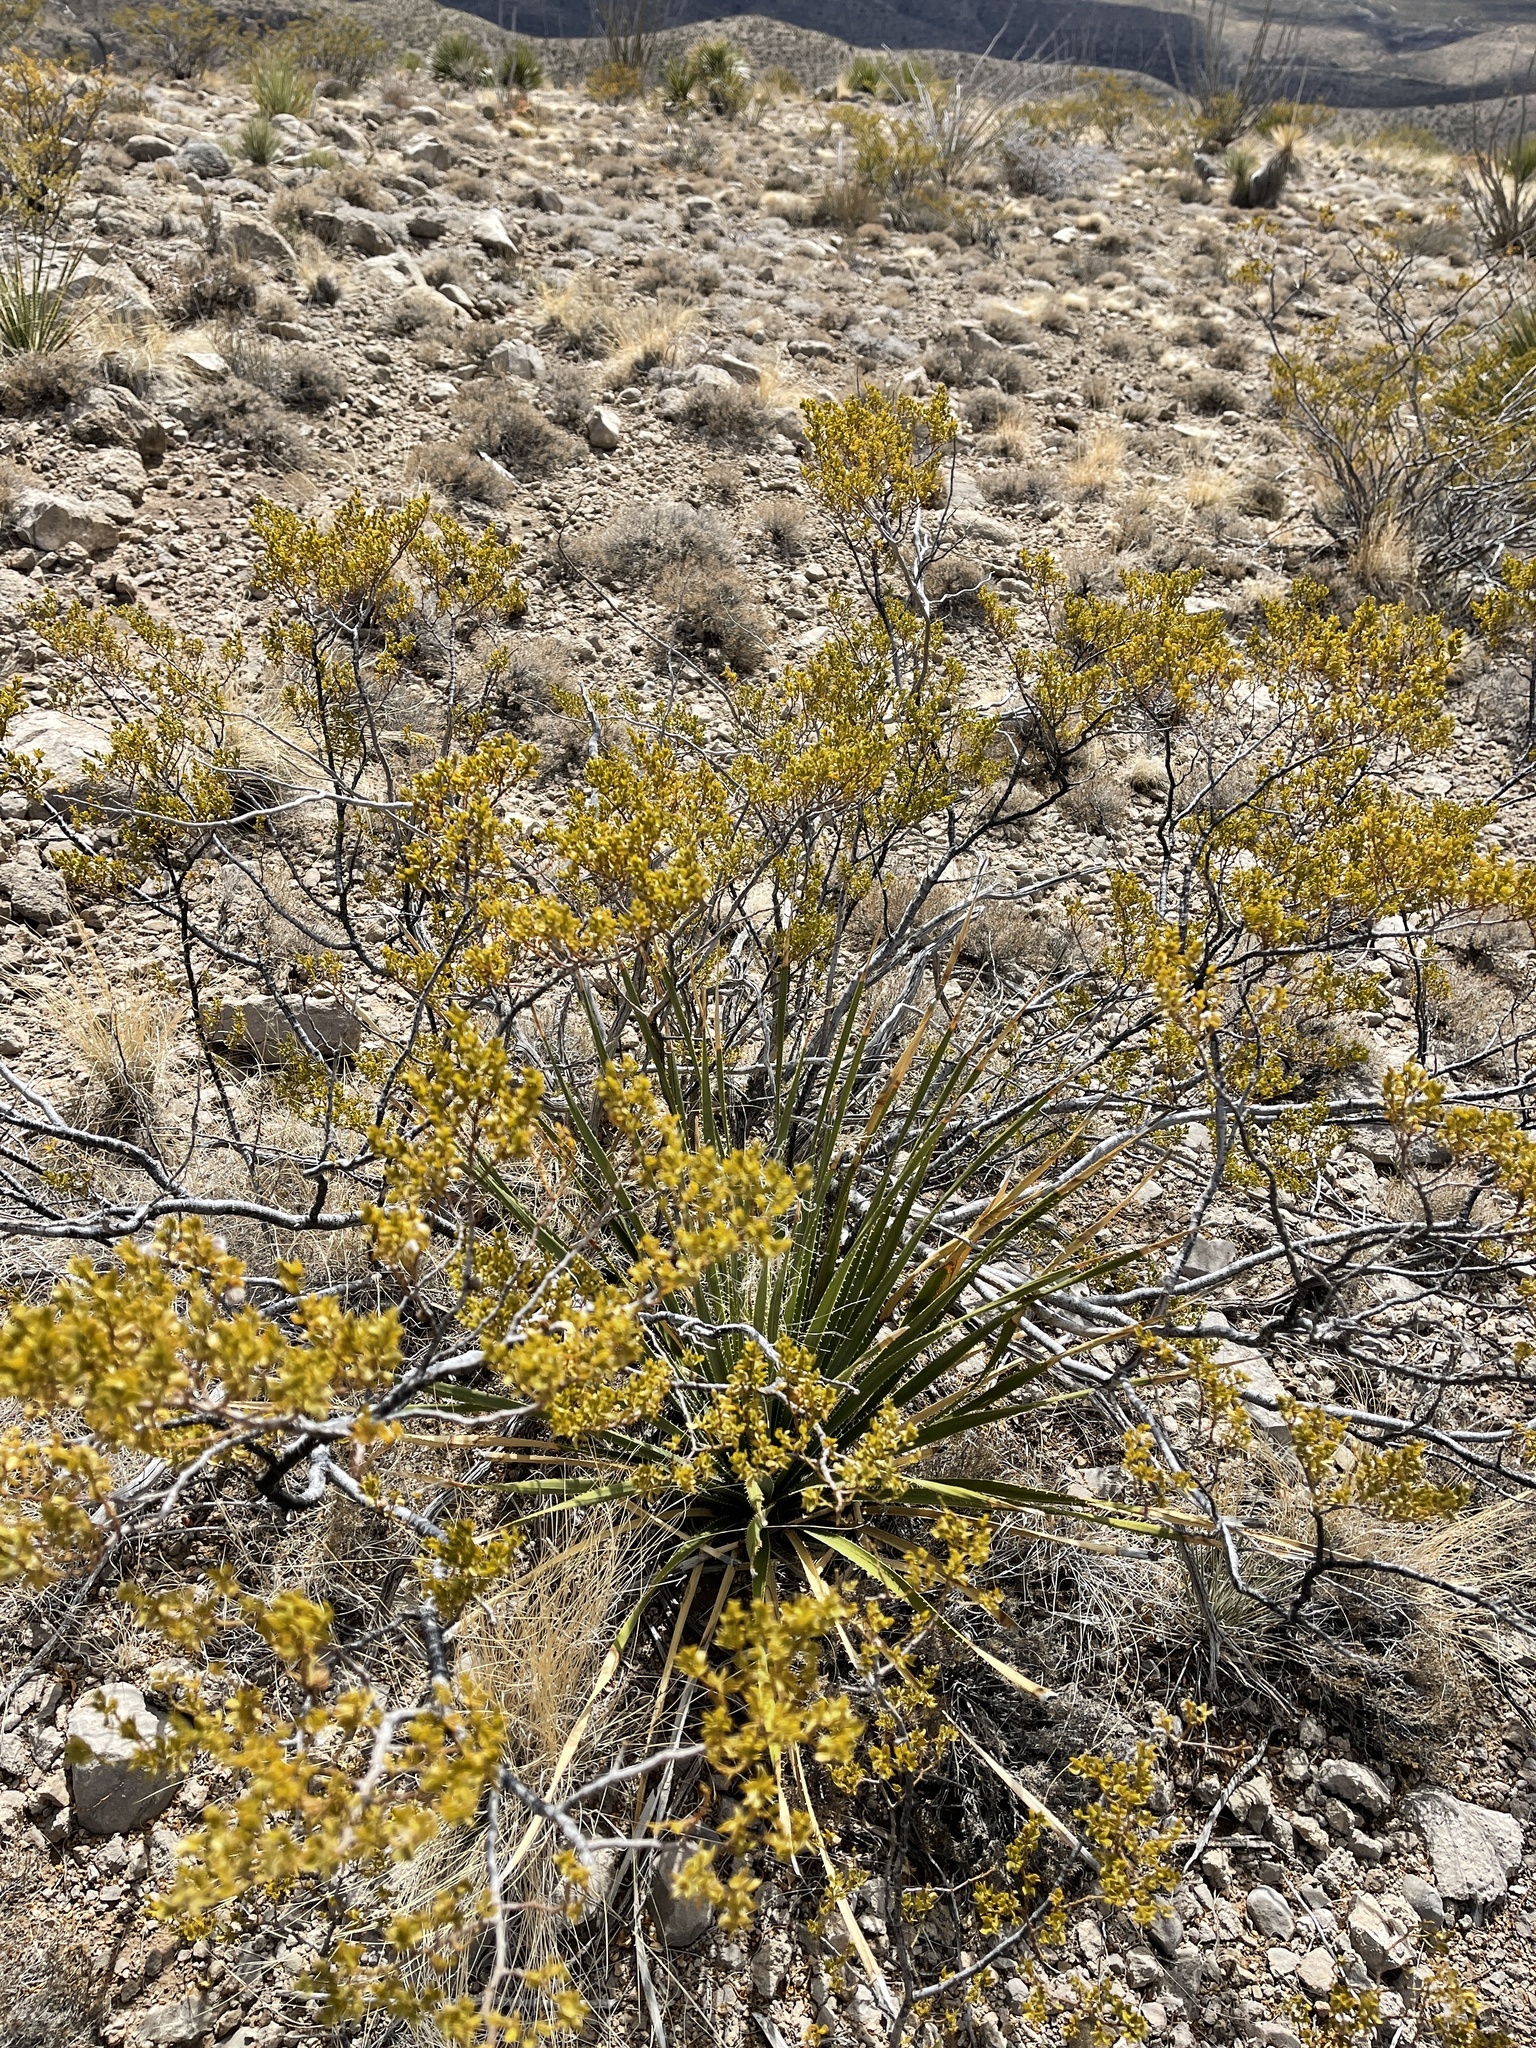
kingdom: Plantae
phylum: Tracheophyta
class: Magnoliopsida
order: Zygophyllales
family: Zygophyllaceae
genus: Larrea
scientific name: Larrea tridentata
